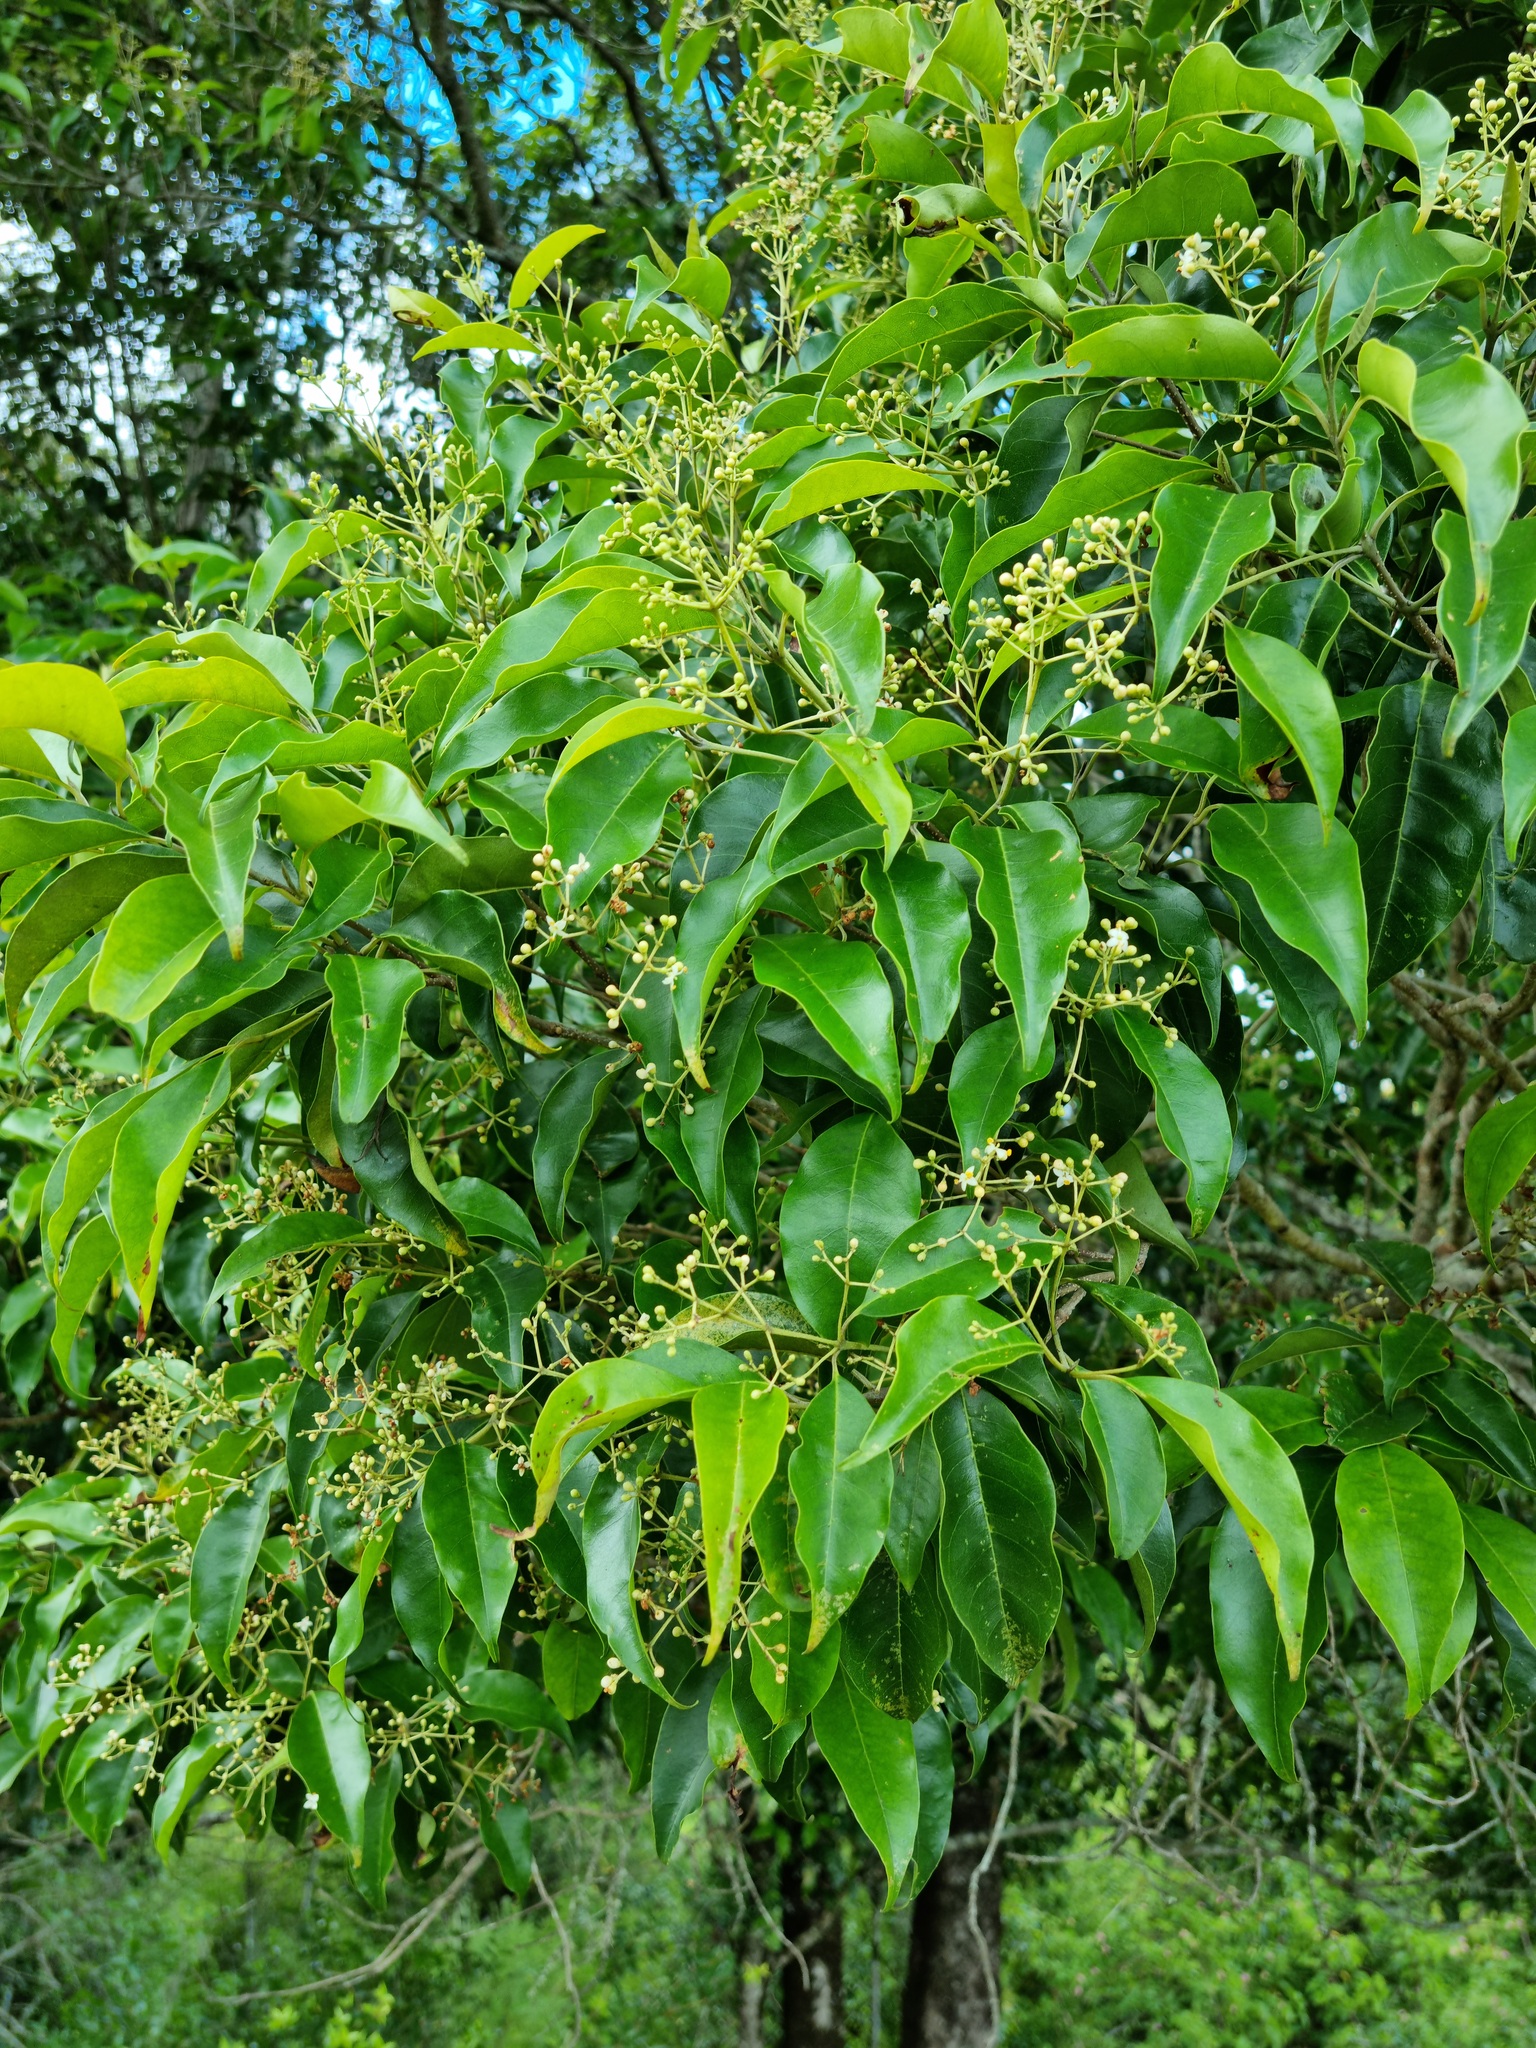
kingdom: Plantae
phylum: Tracheophyta
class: Magnoliopsida
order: Lamiales
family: Oleaceae
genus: Olea
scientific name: Olea paniculata
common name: Australian olive
